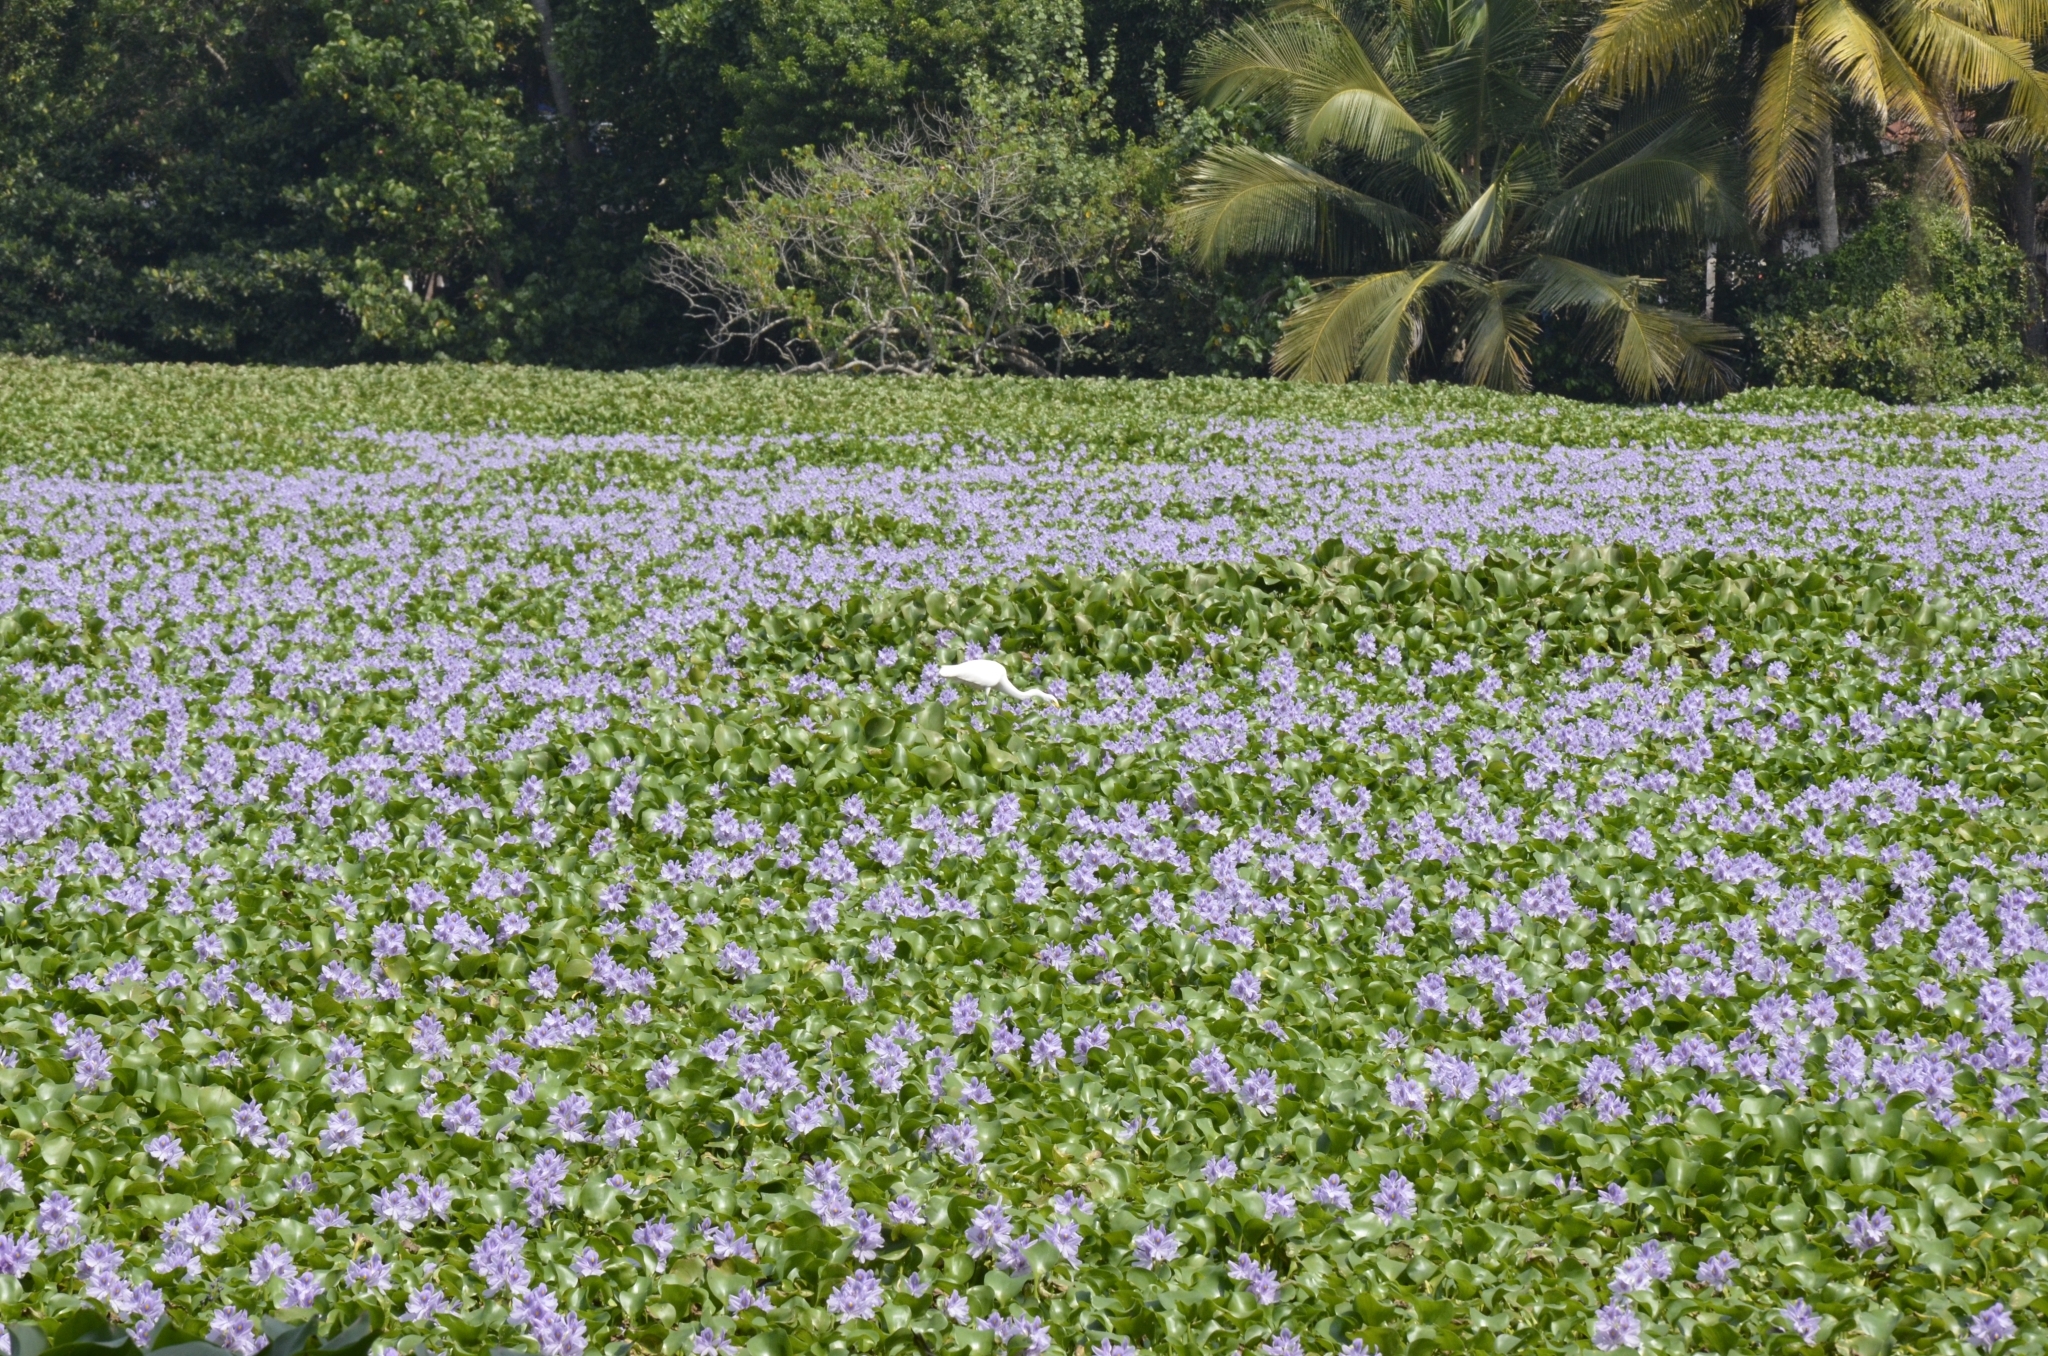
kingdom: Animalia
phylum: Chordata
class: Aves
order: Pelecaniformes
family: Ardeidae
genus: Egretta
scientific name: Egretta intermedia
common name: Intermediate egret
